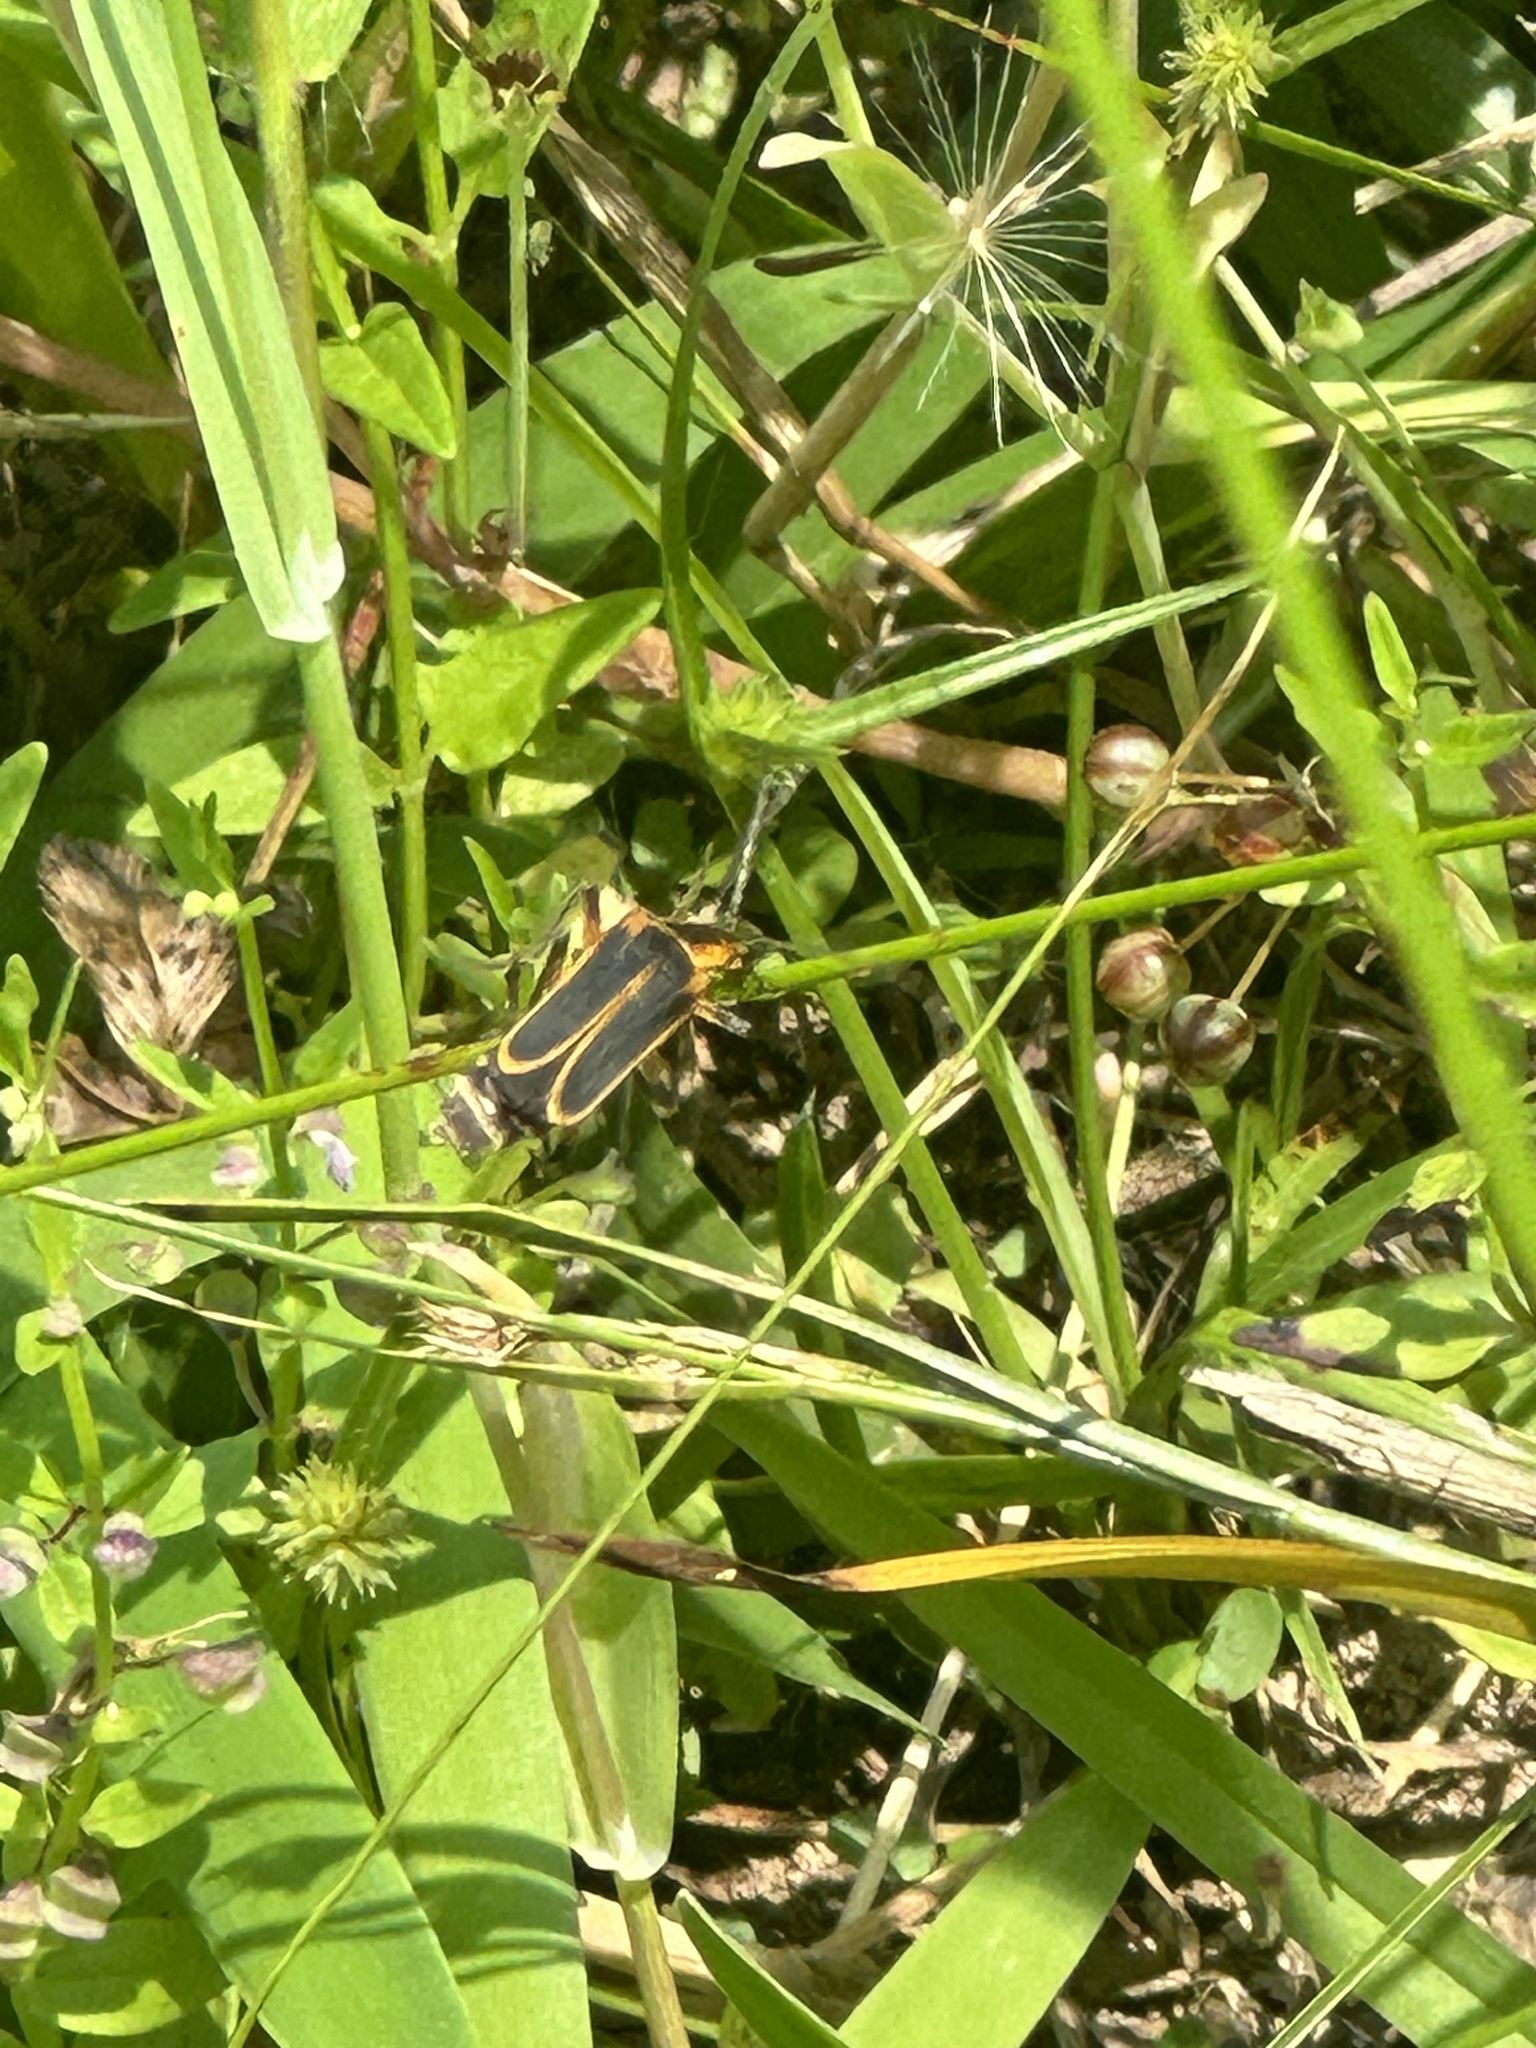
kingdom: Animalia
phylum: Arthropoda
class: Insecta
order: Coleoptera
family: Cantharidae
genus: Chauliognathus
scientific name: Chauliognathus marginatus
